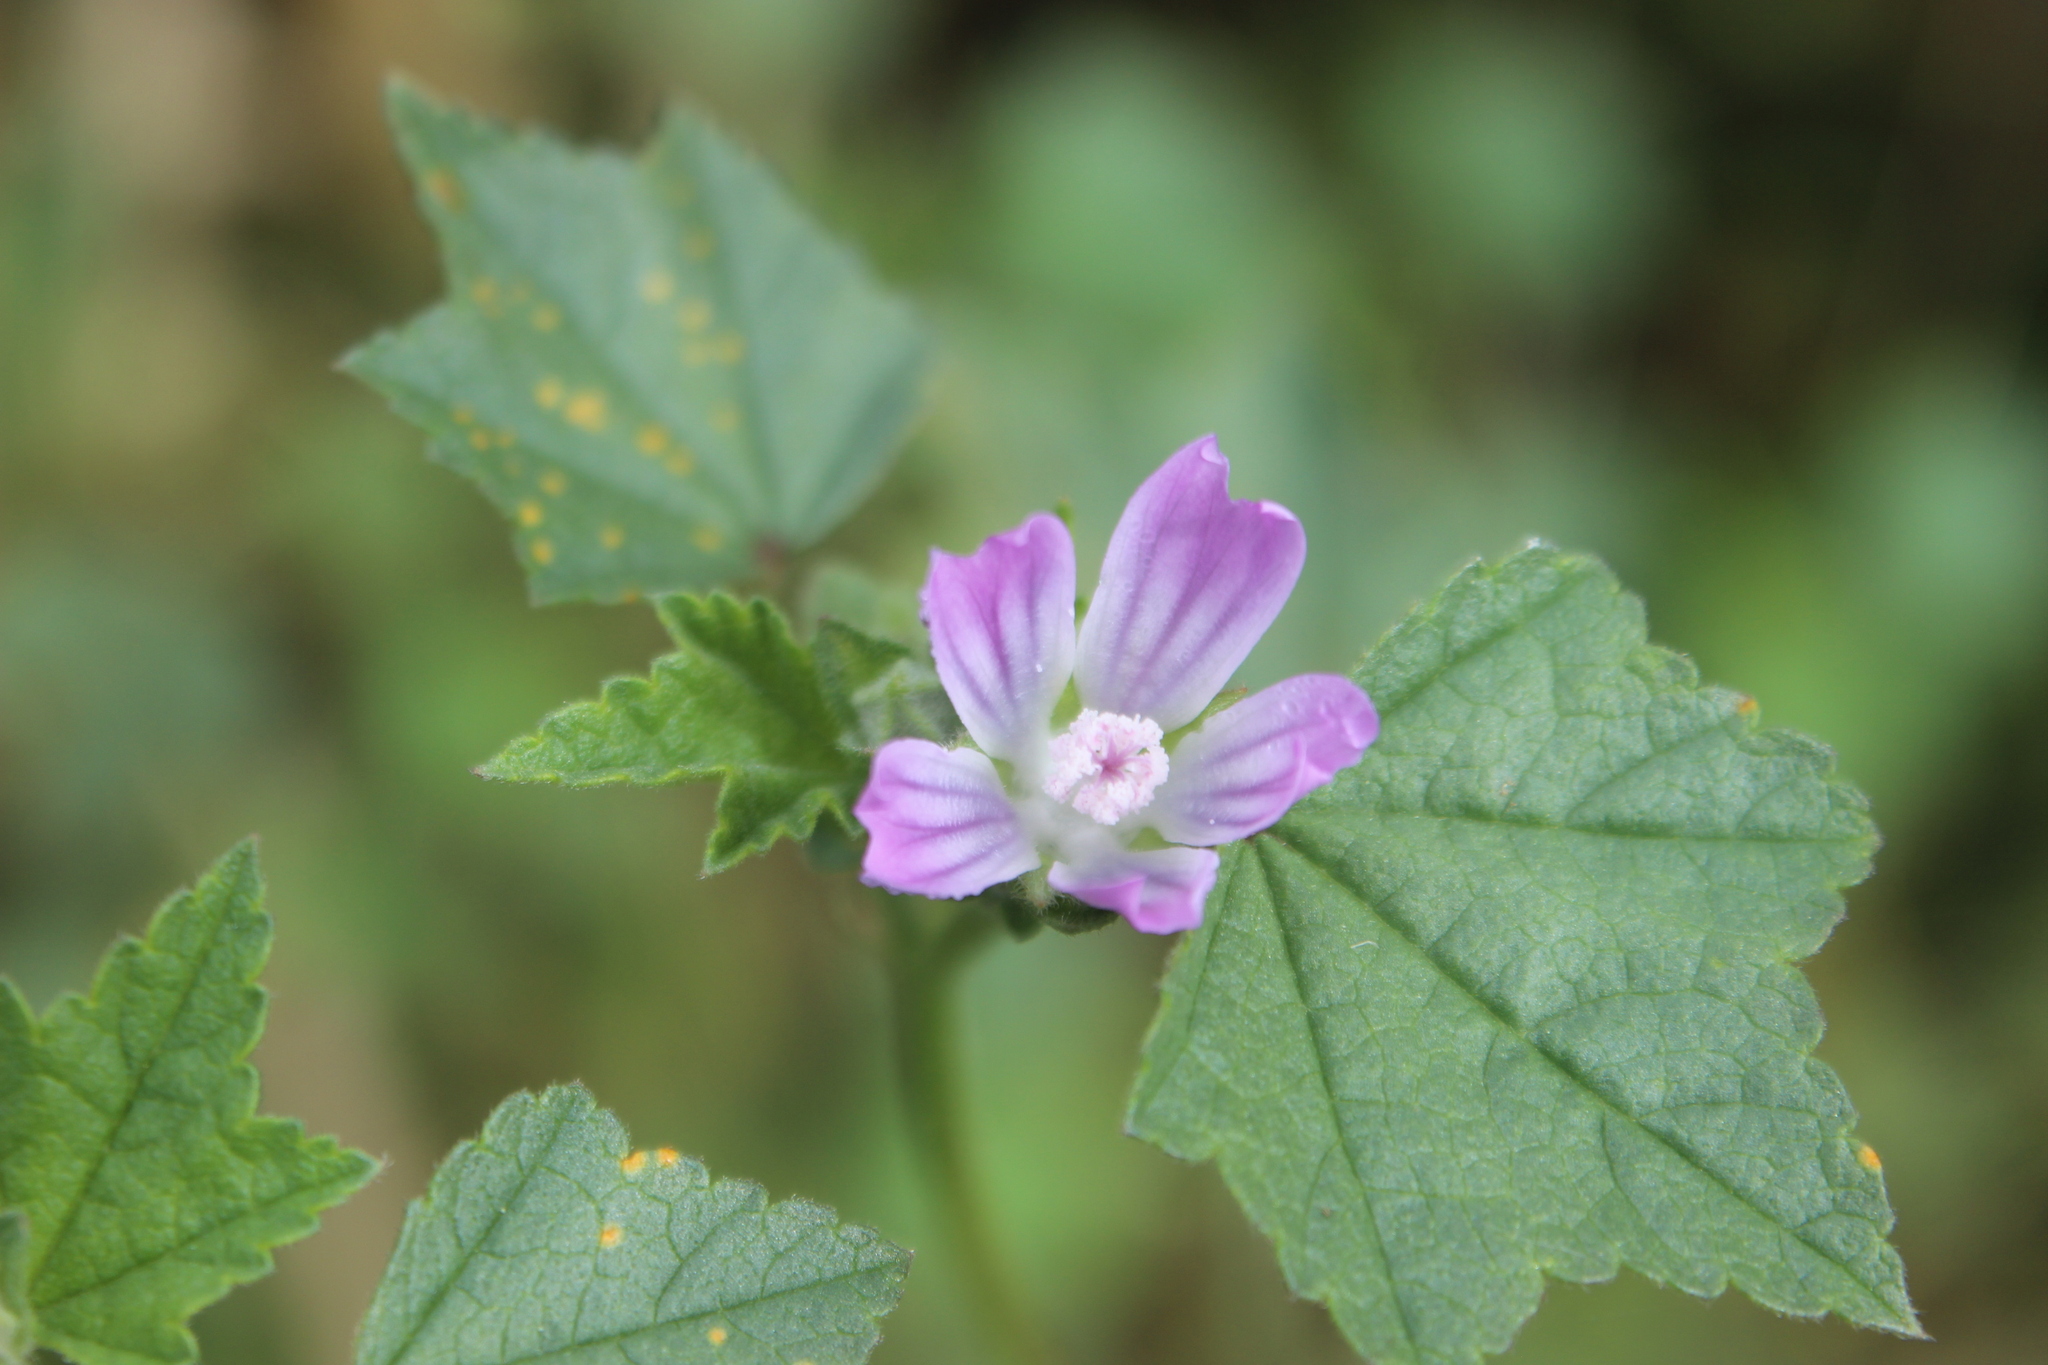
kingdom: Plantae
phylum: Tracheophyta
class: Magnoliopsida
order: Malvales
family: Malvaceae
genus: Malva
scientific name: Malva multiflora
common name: Cheeseweed
